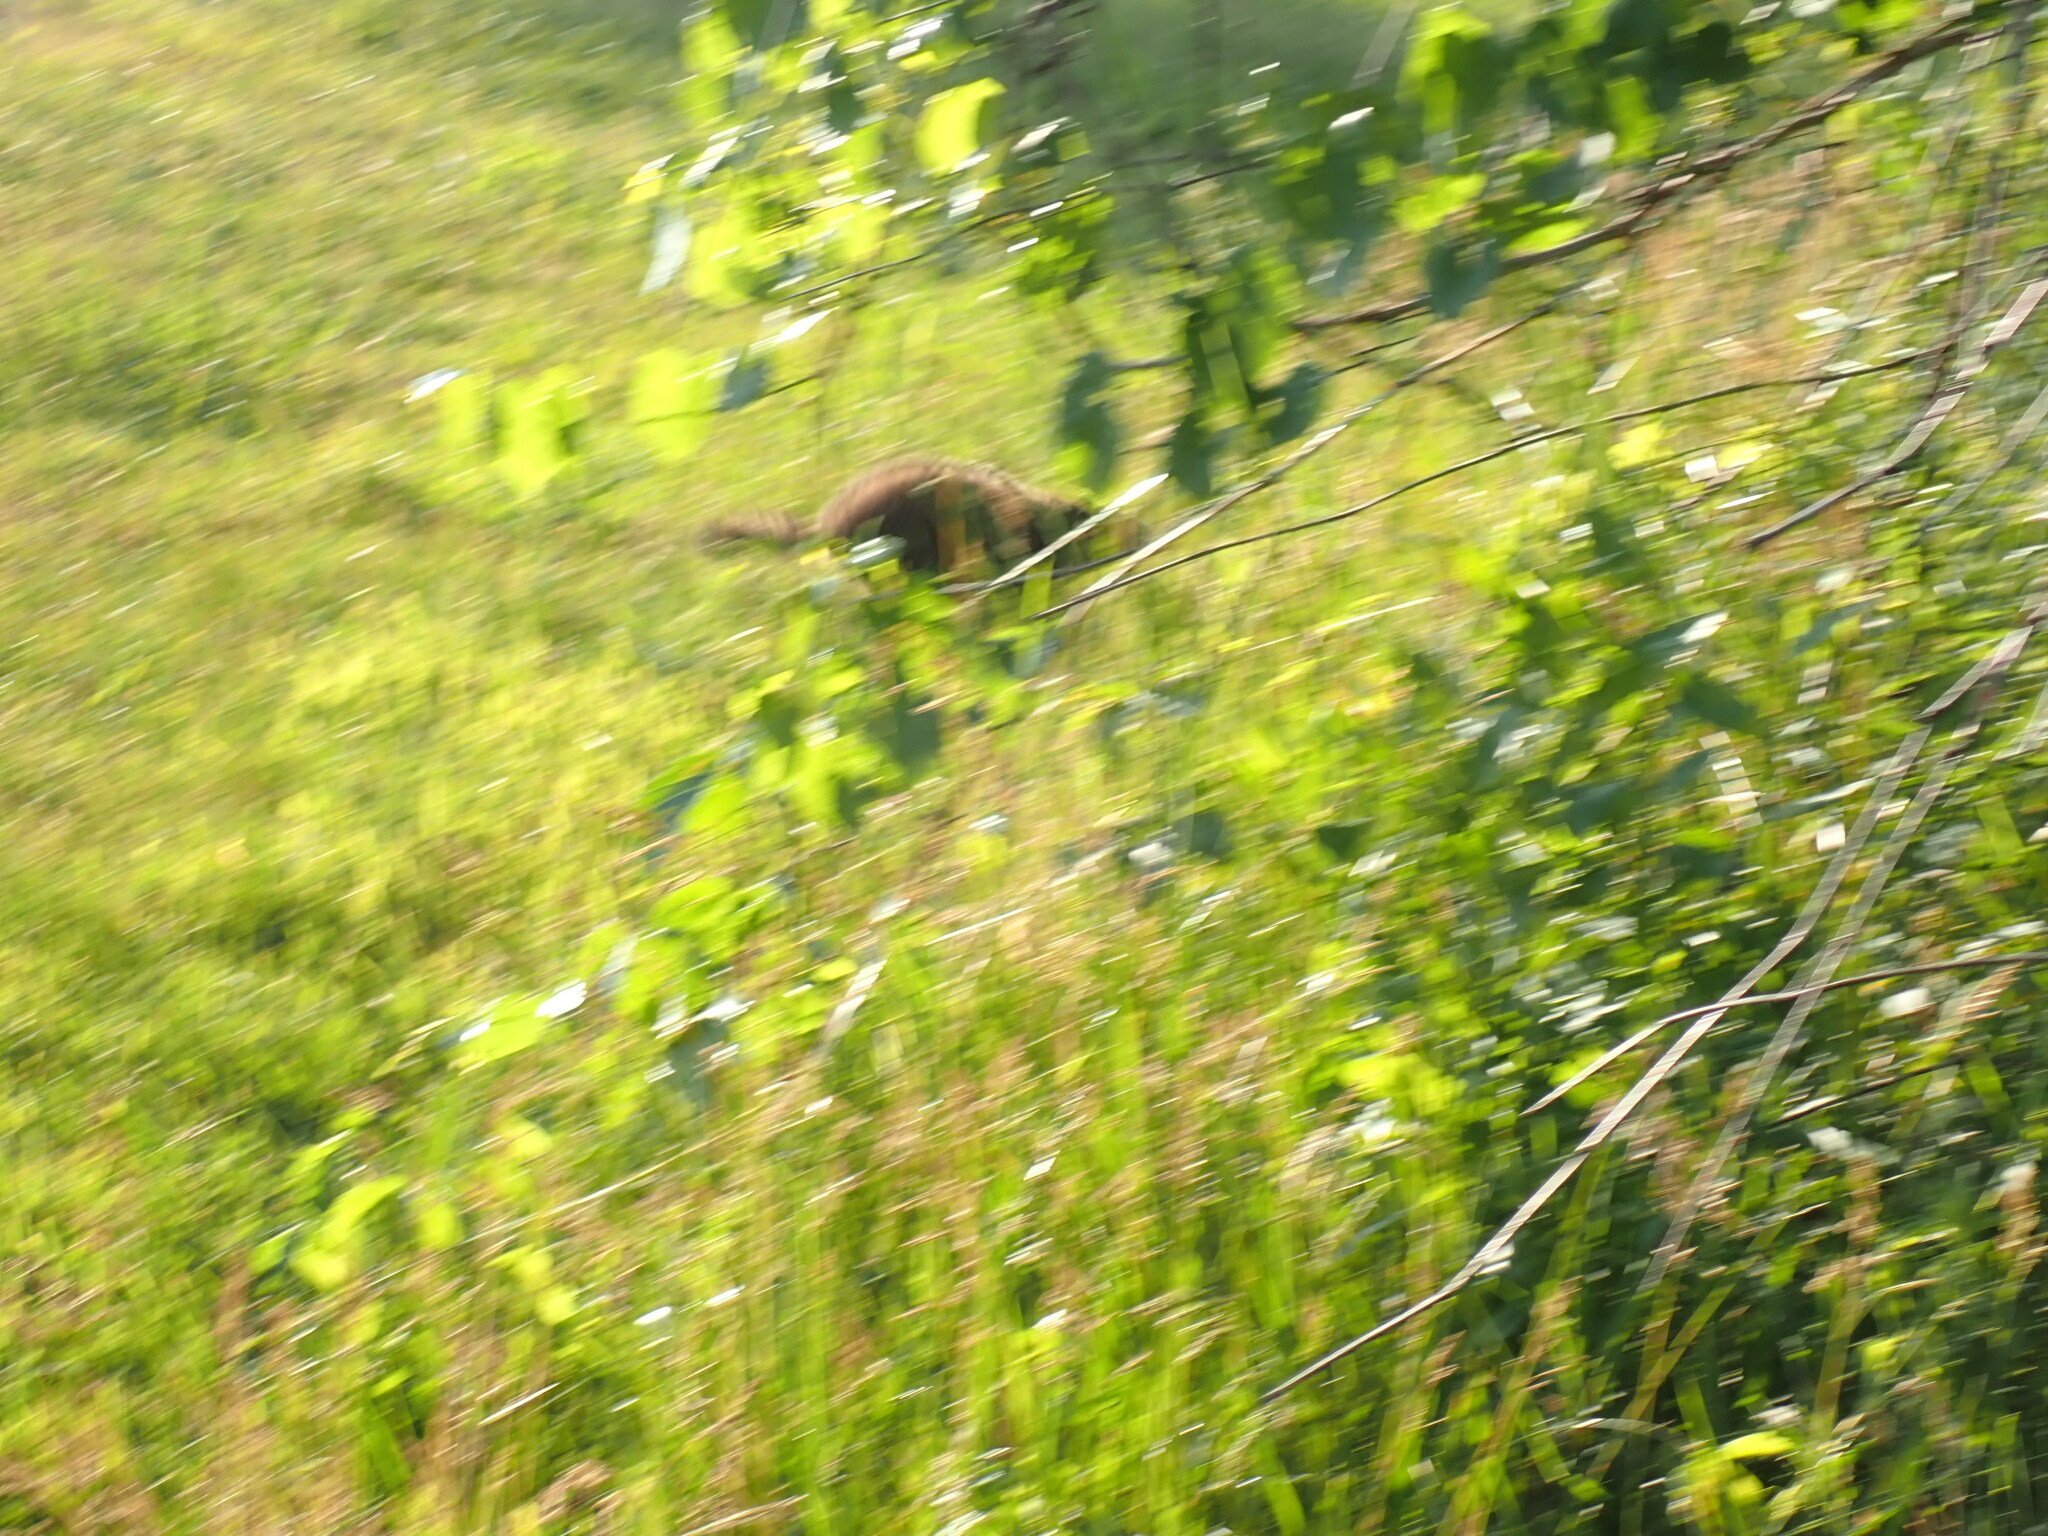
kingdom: Animalia
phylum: Chordata
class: Mammalia
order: Rodentia
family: Sciuridae
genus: Marmota
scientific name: Marmota monax
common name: Groundhog
